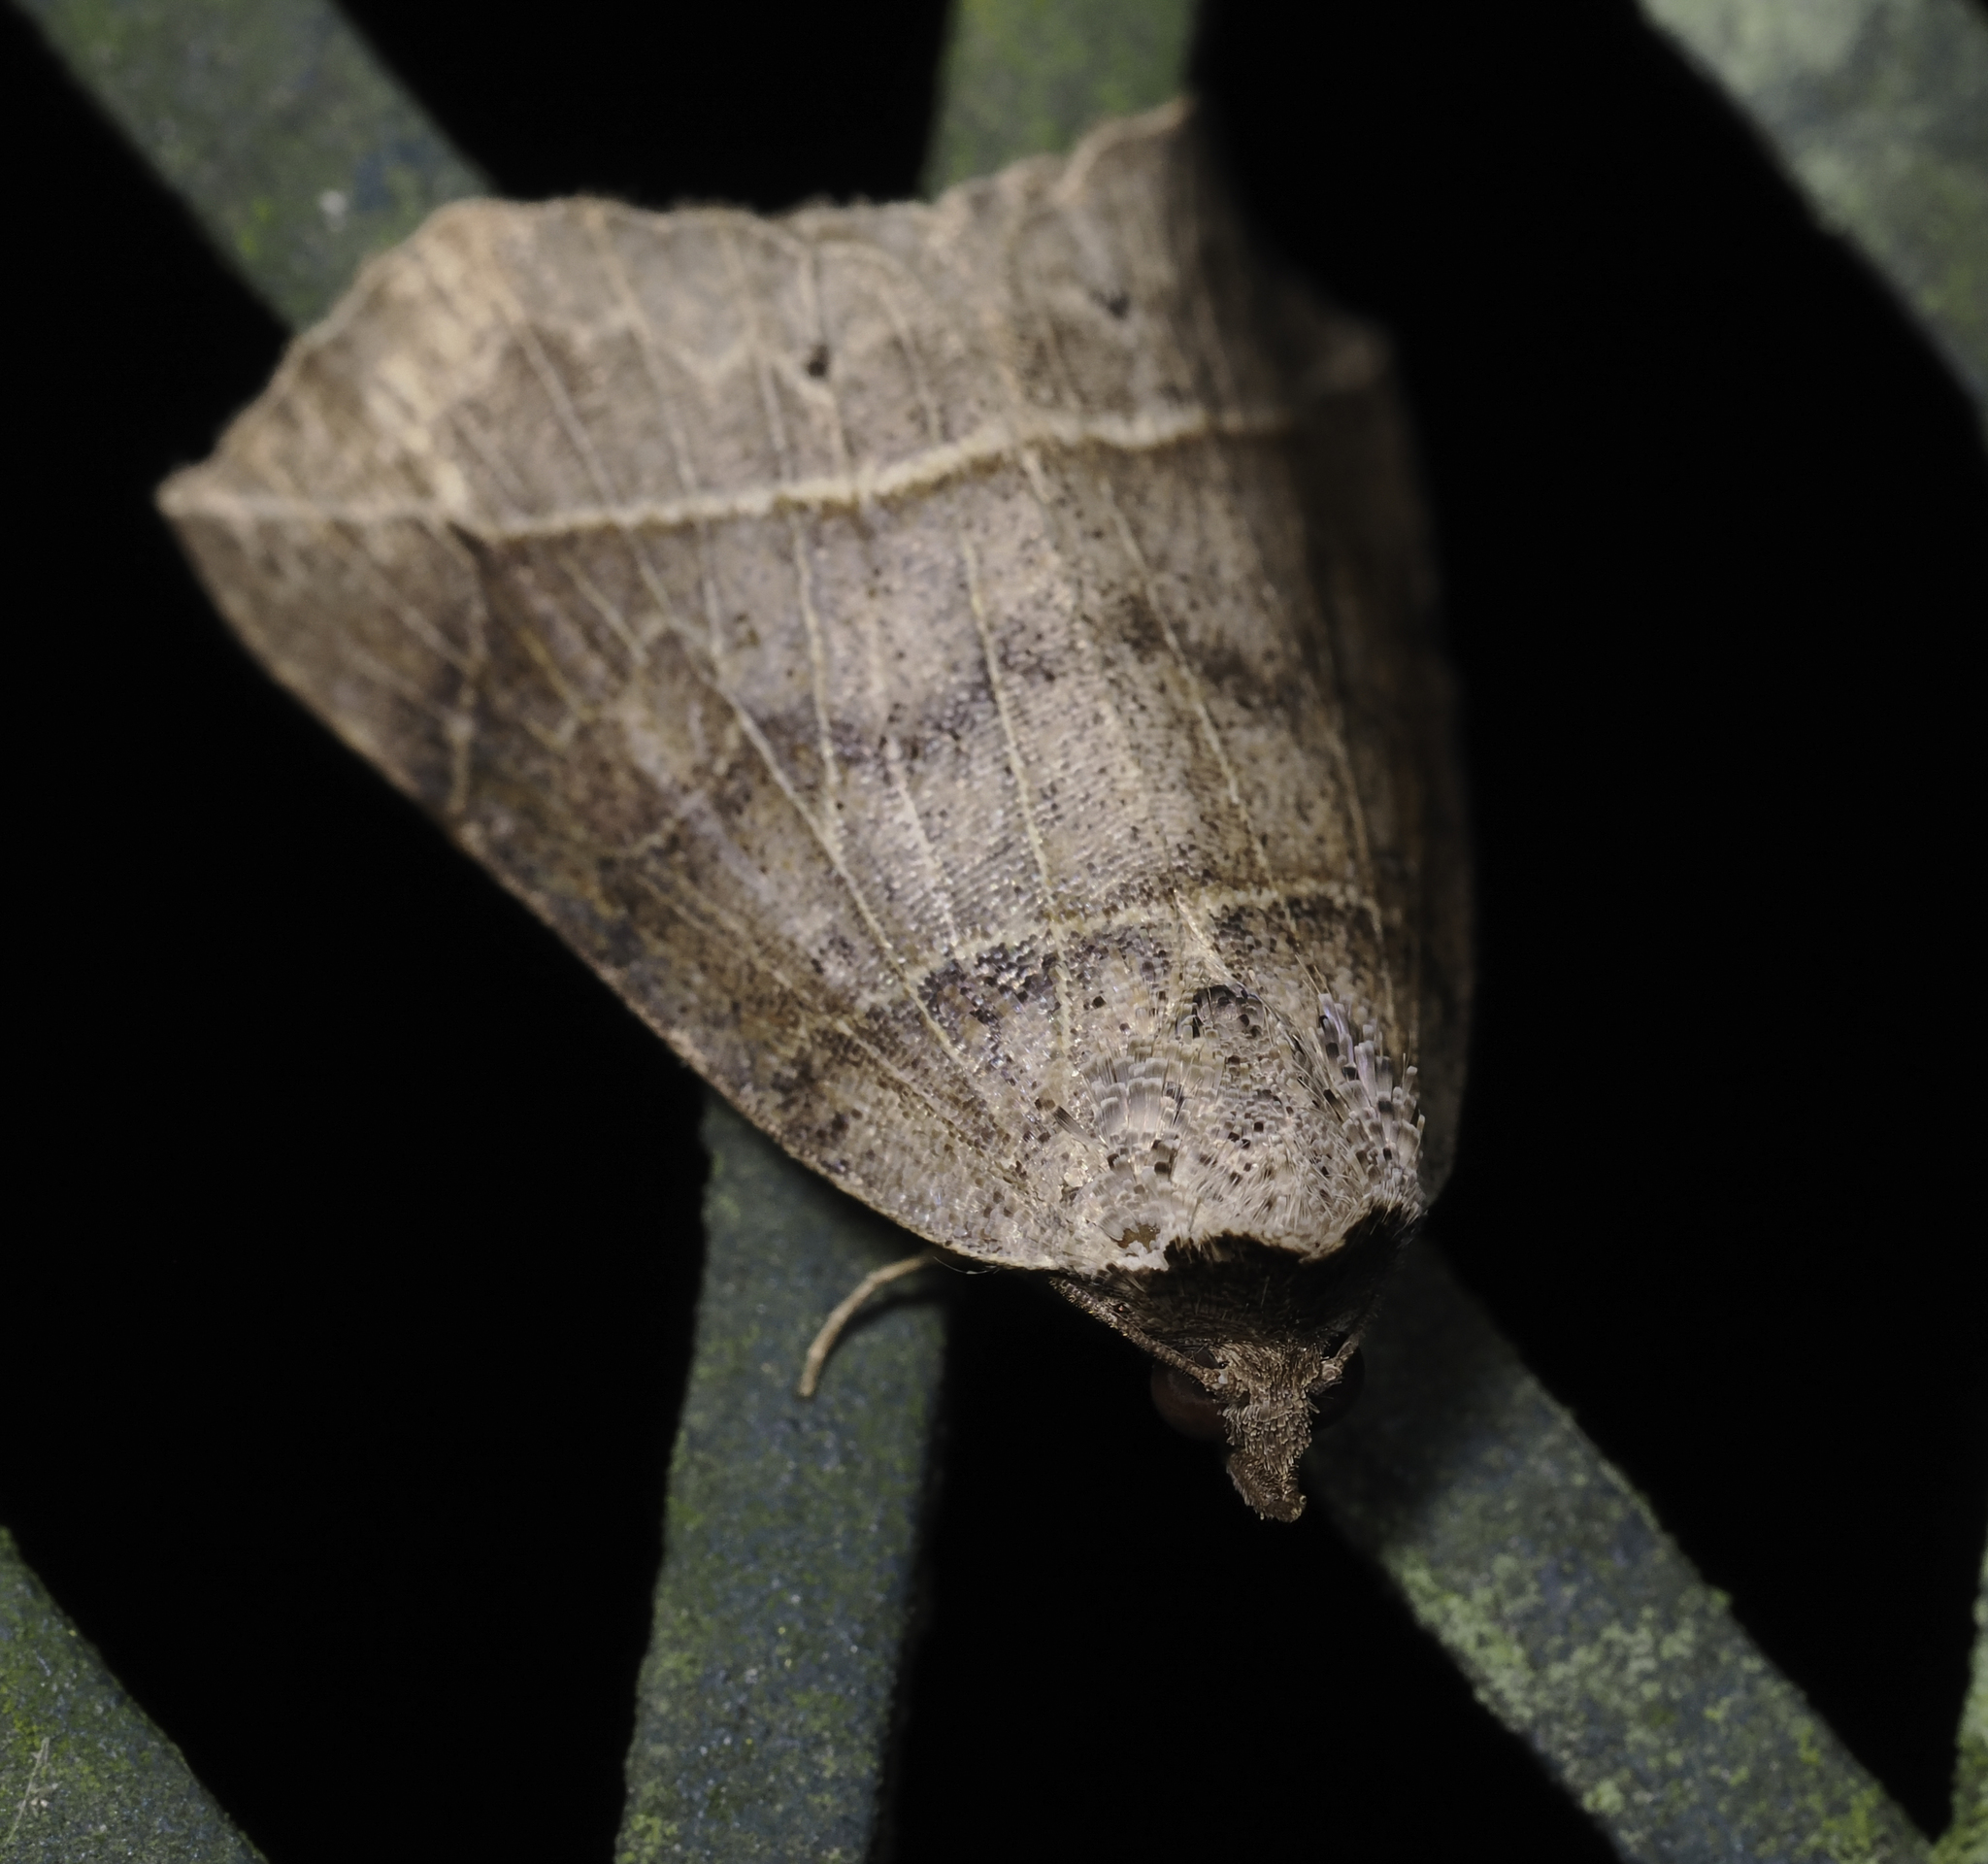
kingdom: Animalia
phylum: Arthropoda
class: Insecta
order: Lepidoptera
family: Erebidae
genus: Isogona
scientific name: Isogona tenuis
